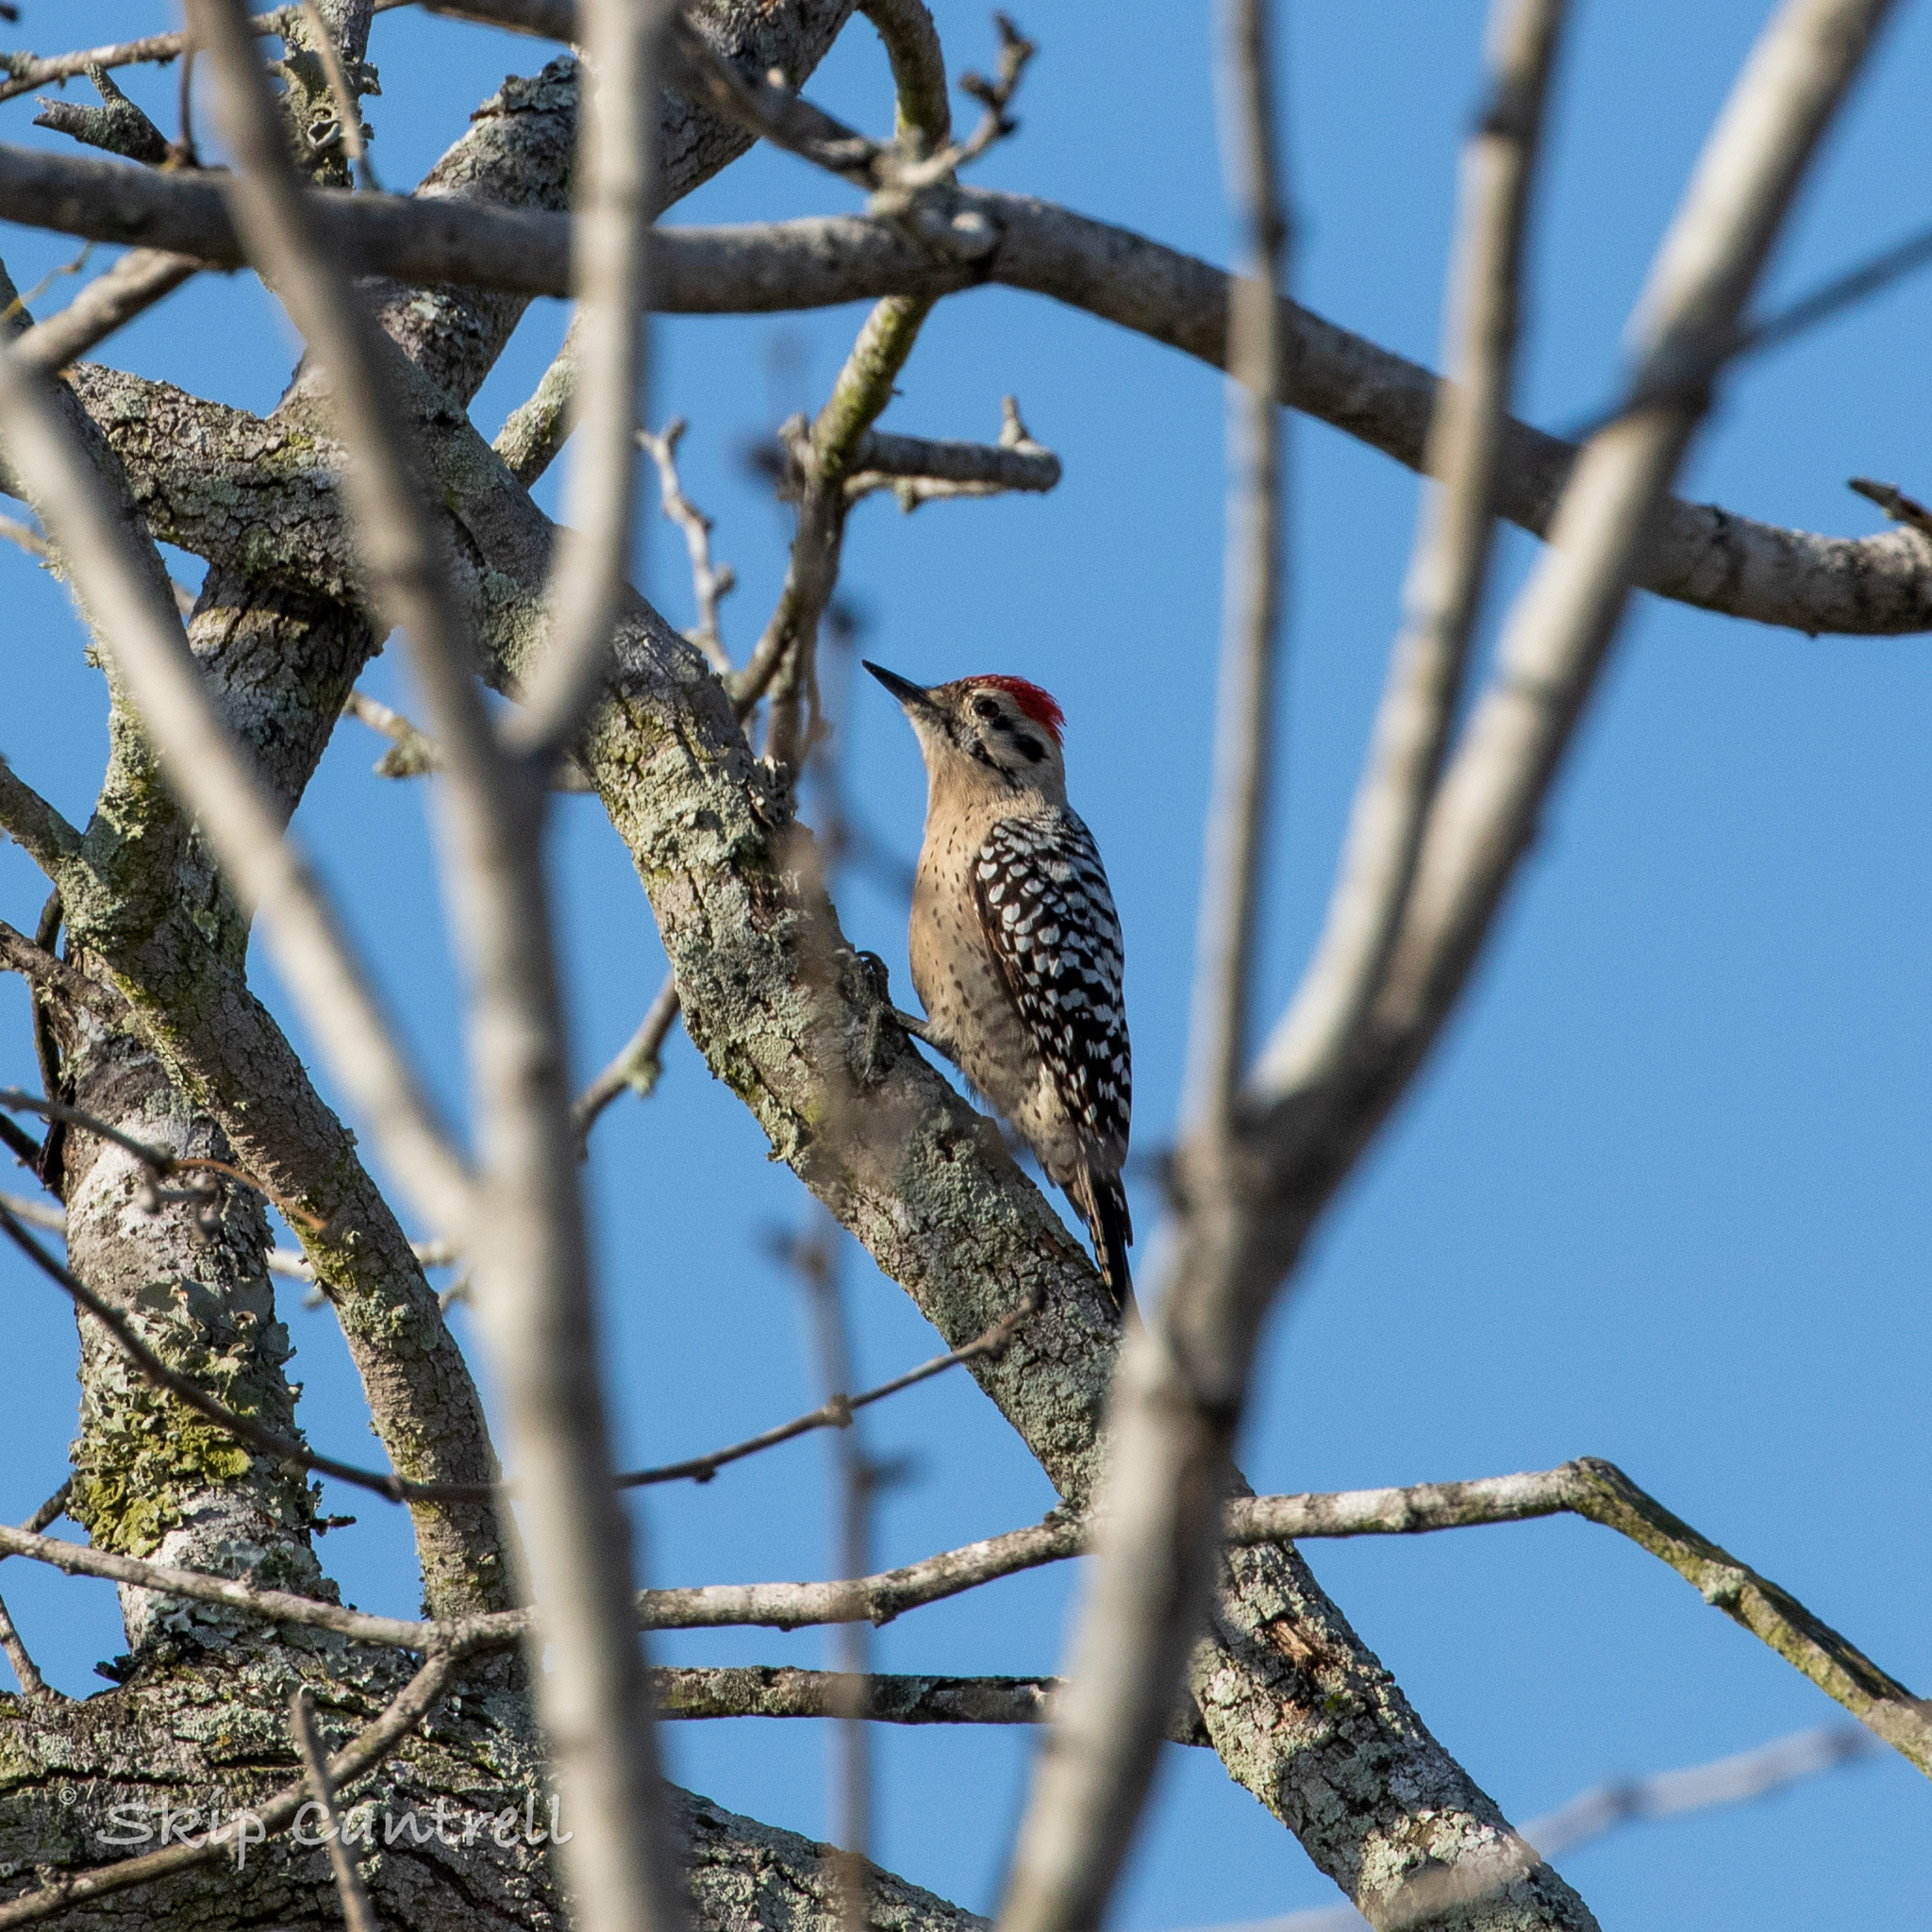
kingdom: Animalia
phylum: Chordata
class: Aves
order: Piciformes
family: Picidae
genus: Dryobates
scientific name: Dryobates scalaris
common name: Ladder-backed woodpecker
